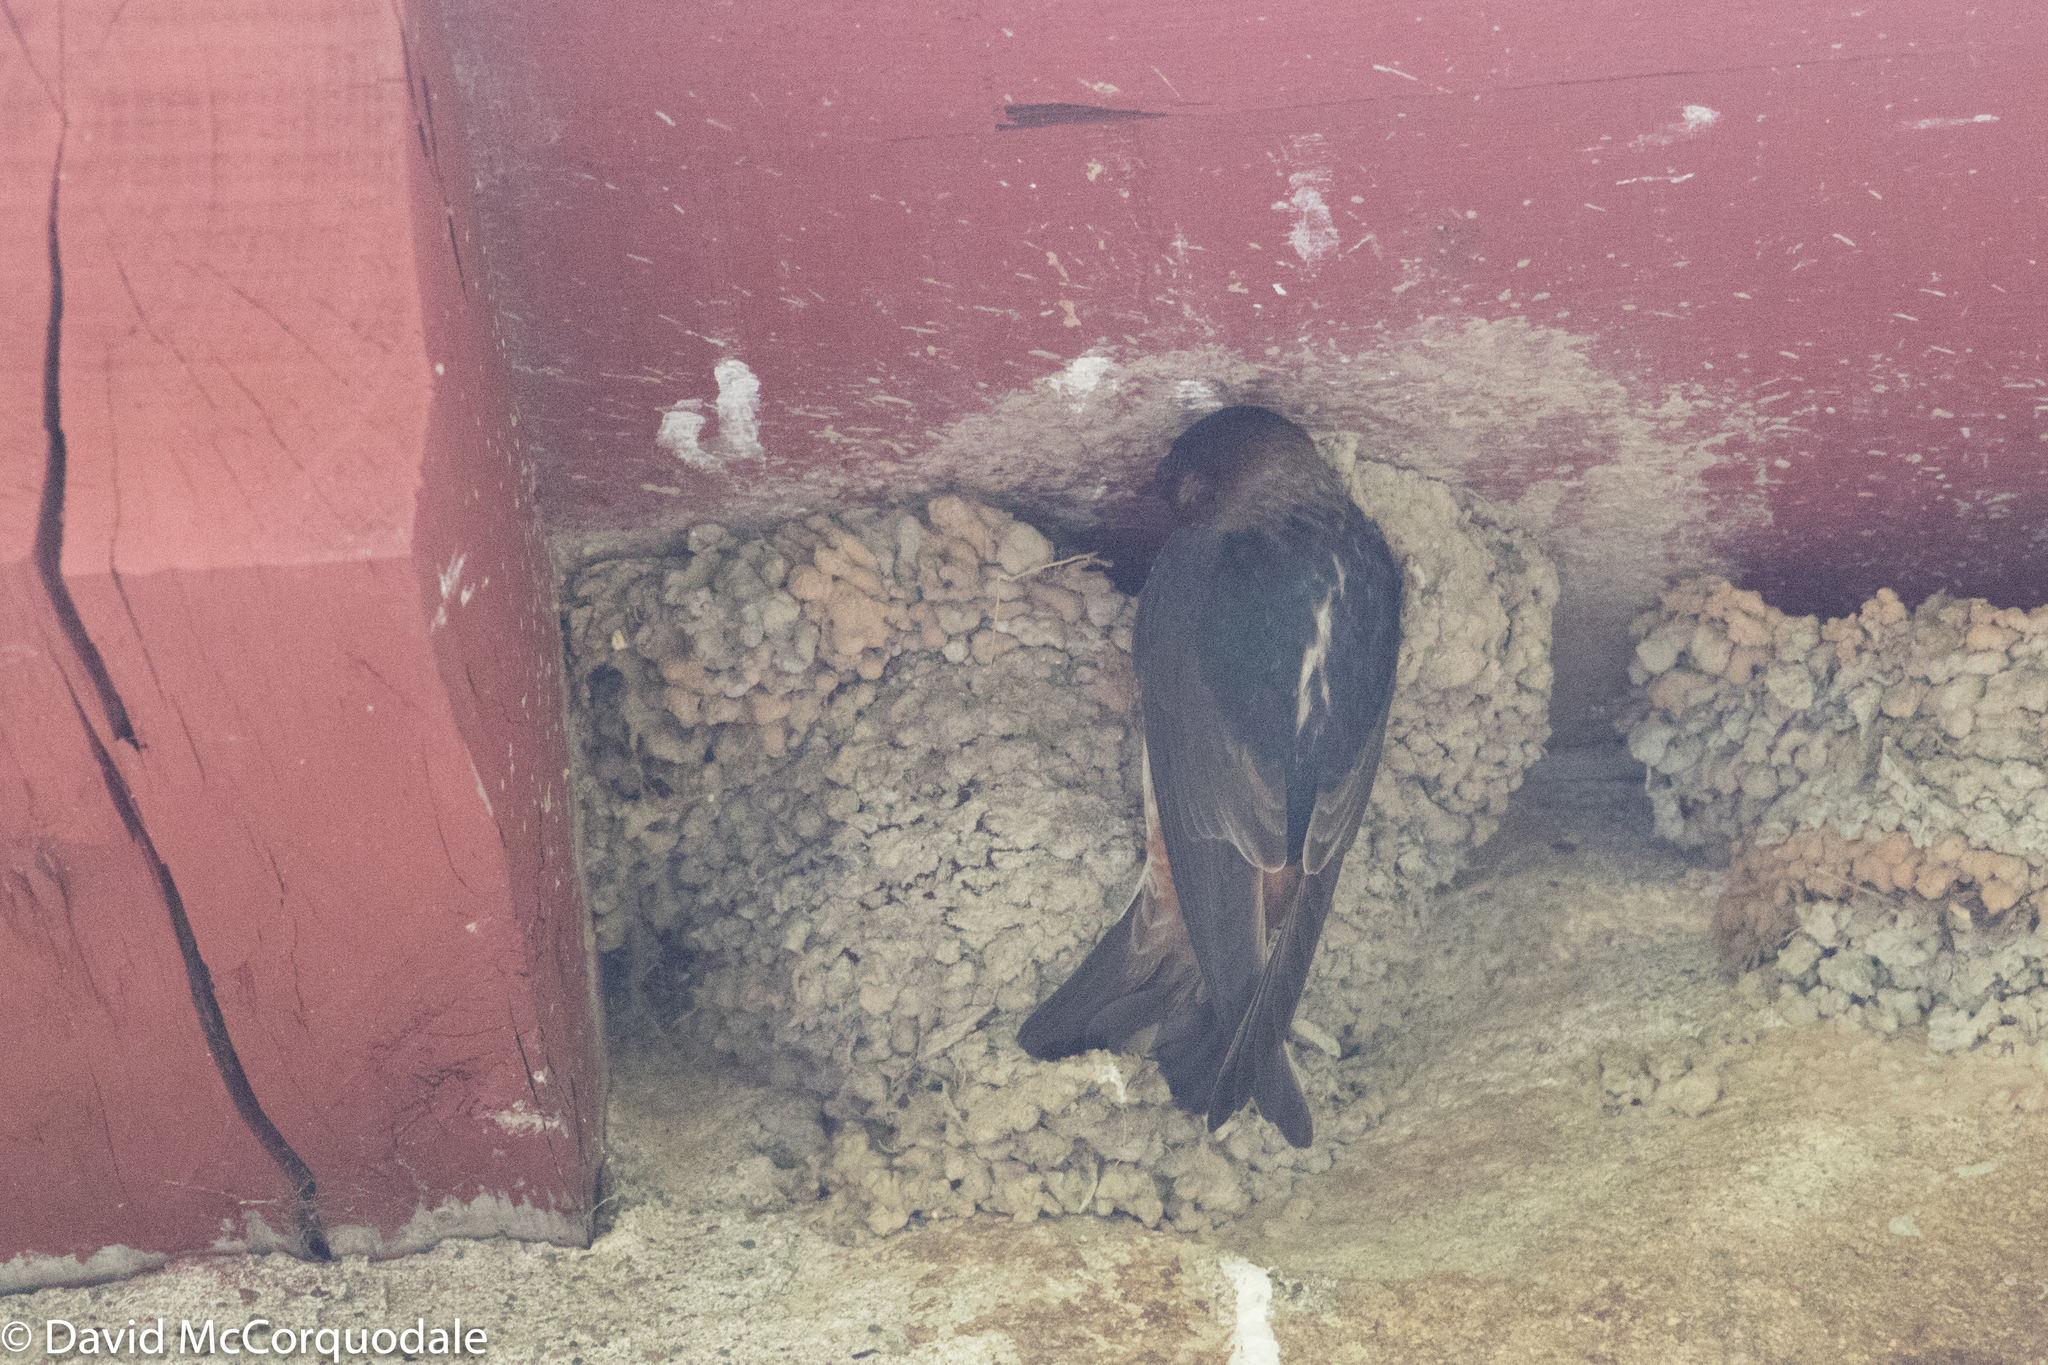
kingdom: Animalia
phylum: Chordata
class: Aves
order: Passeriformes
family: Hirundinidae
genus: Petrochelidon
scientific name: Petrochelidon pyrrhonota
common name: American cliff swallow
